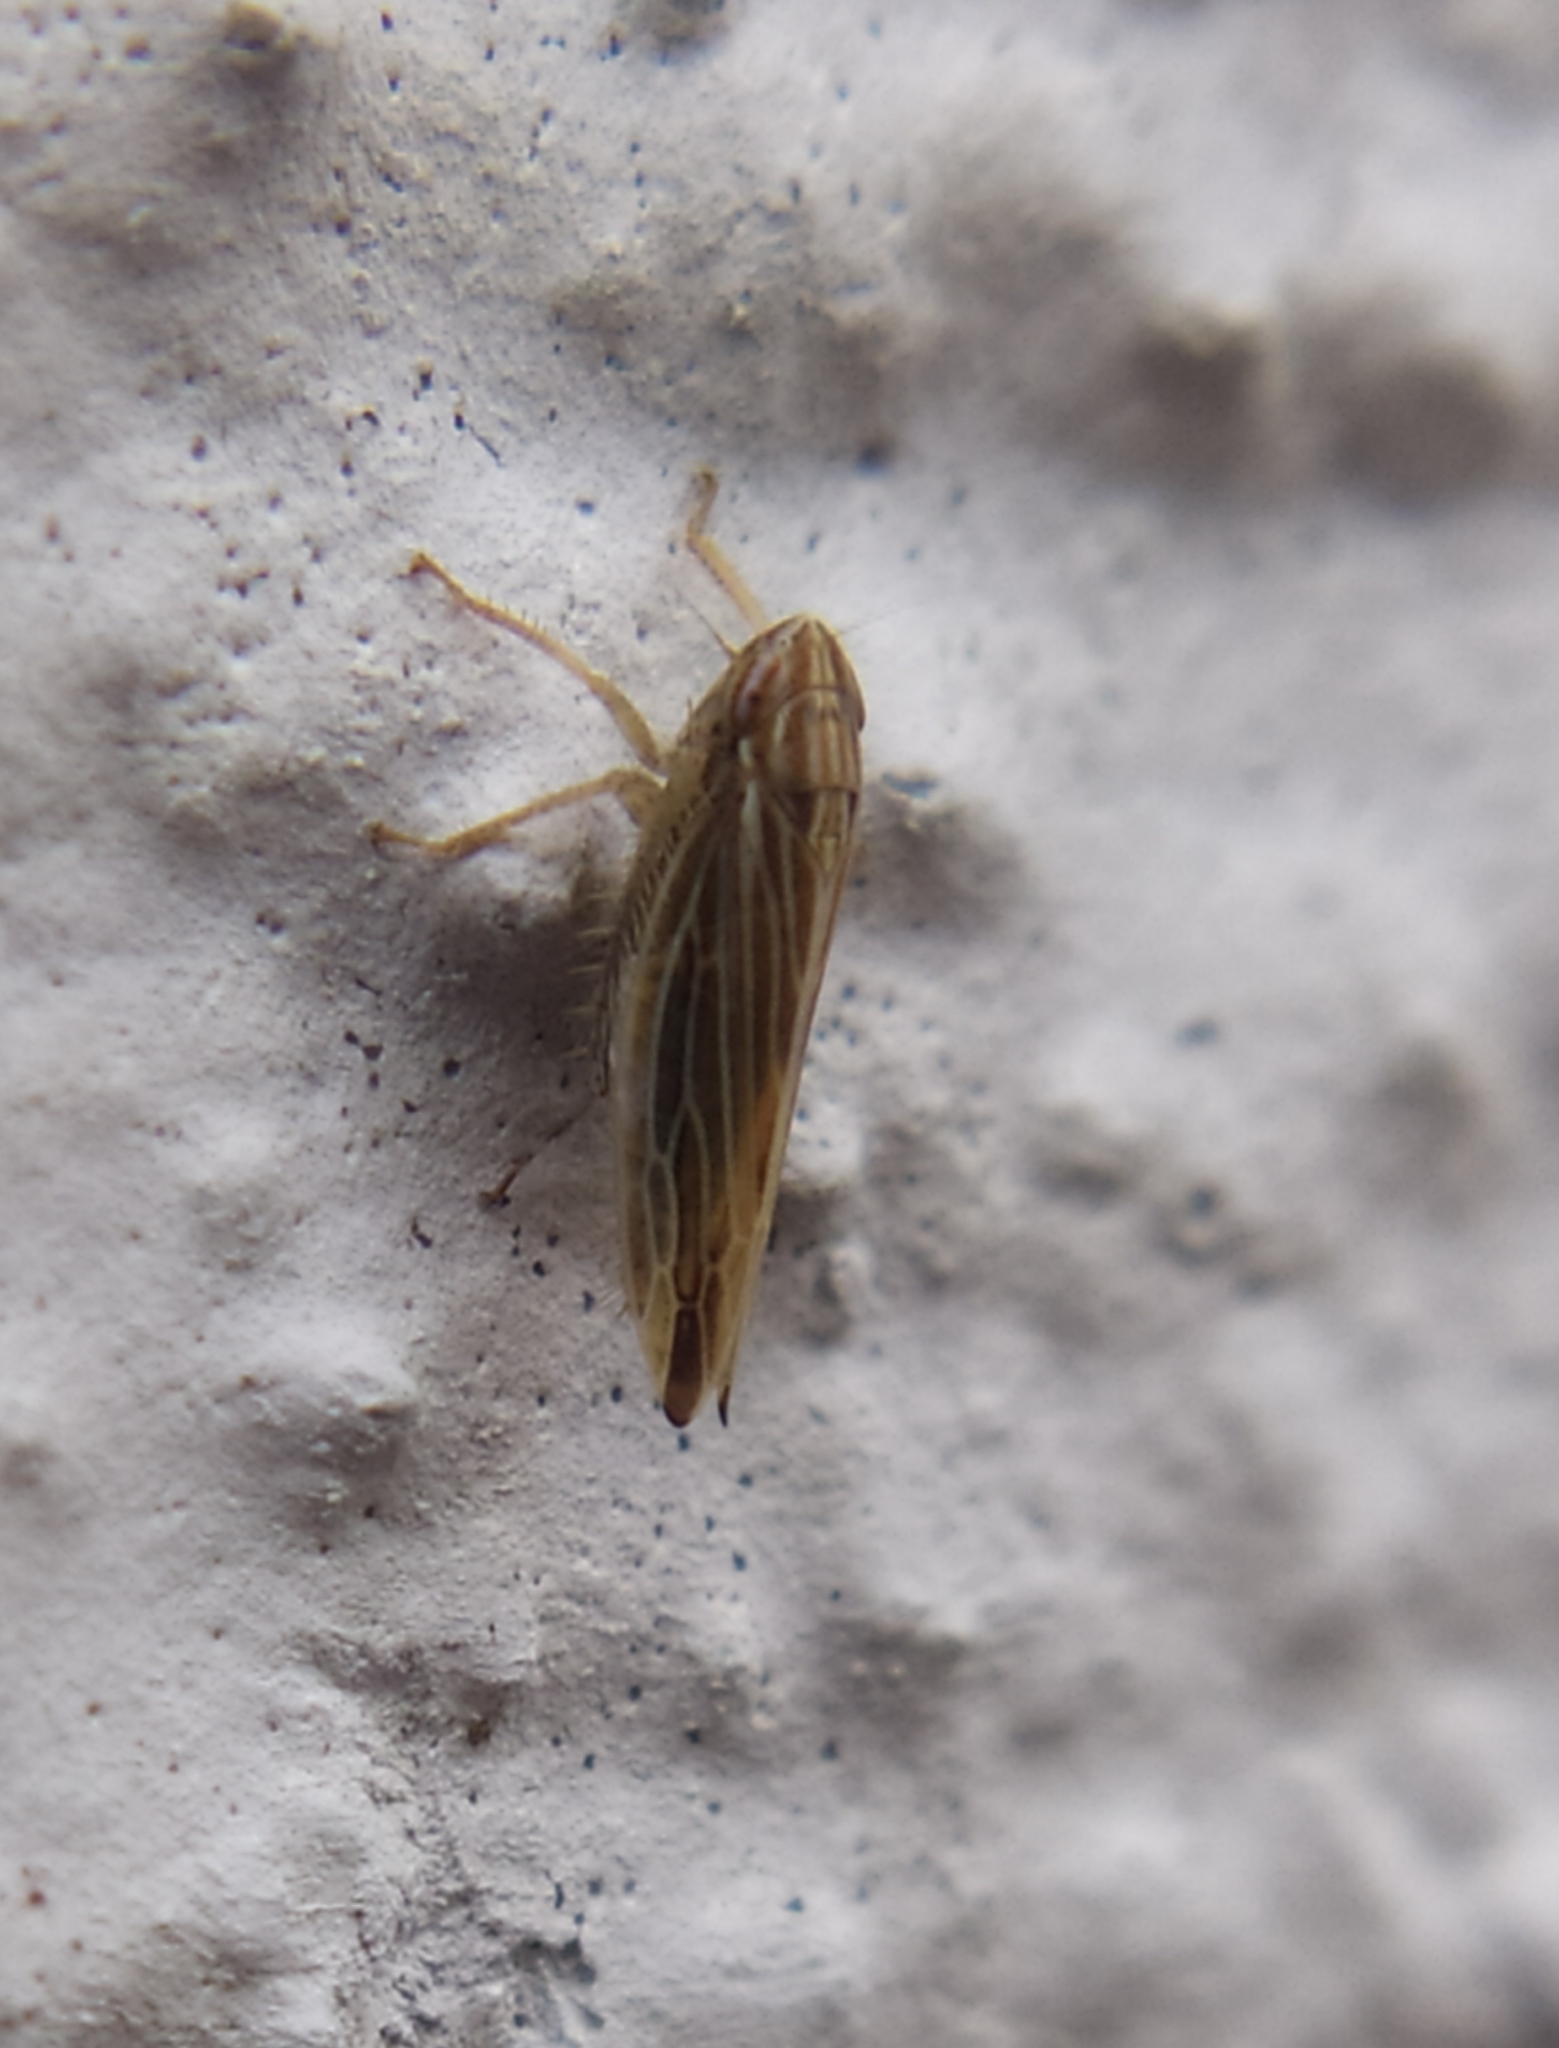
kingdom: Animalia
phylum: Arthropoda
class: Insecta
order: Hemiptera
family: Cicadellidae
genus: Mocydia
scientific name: Mocydia crocea
